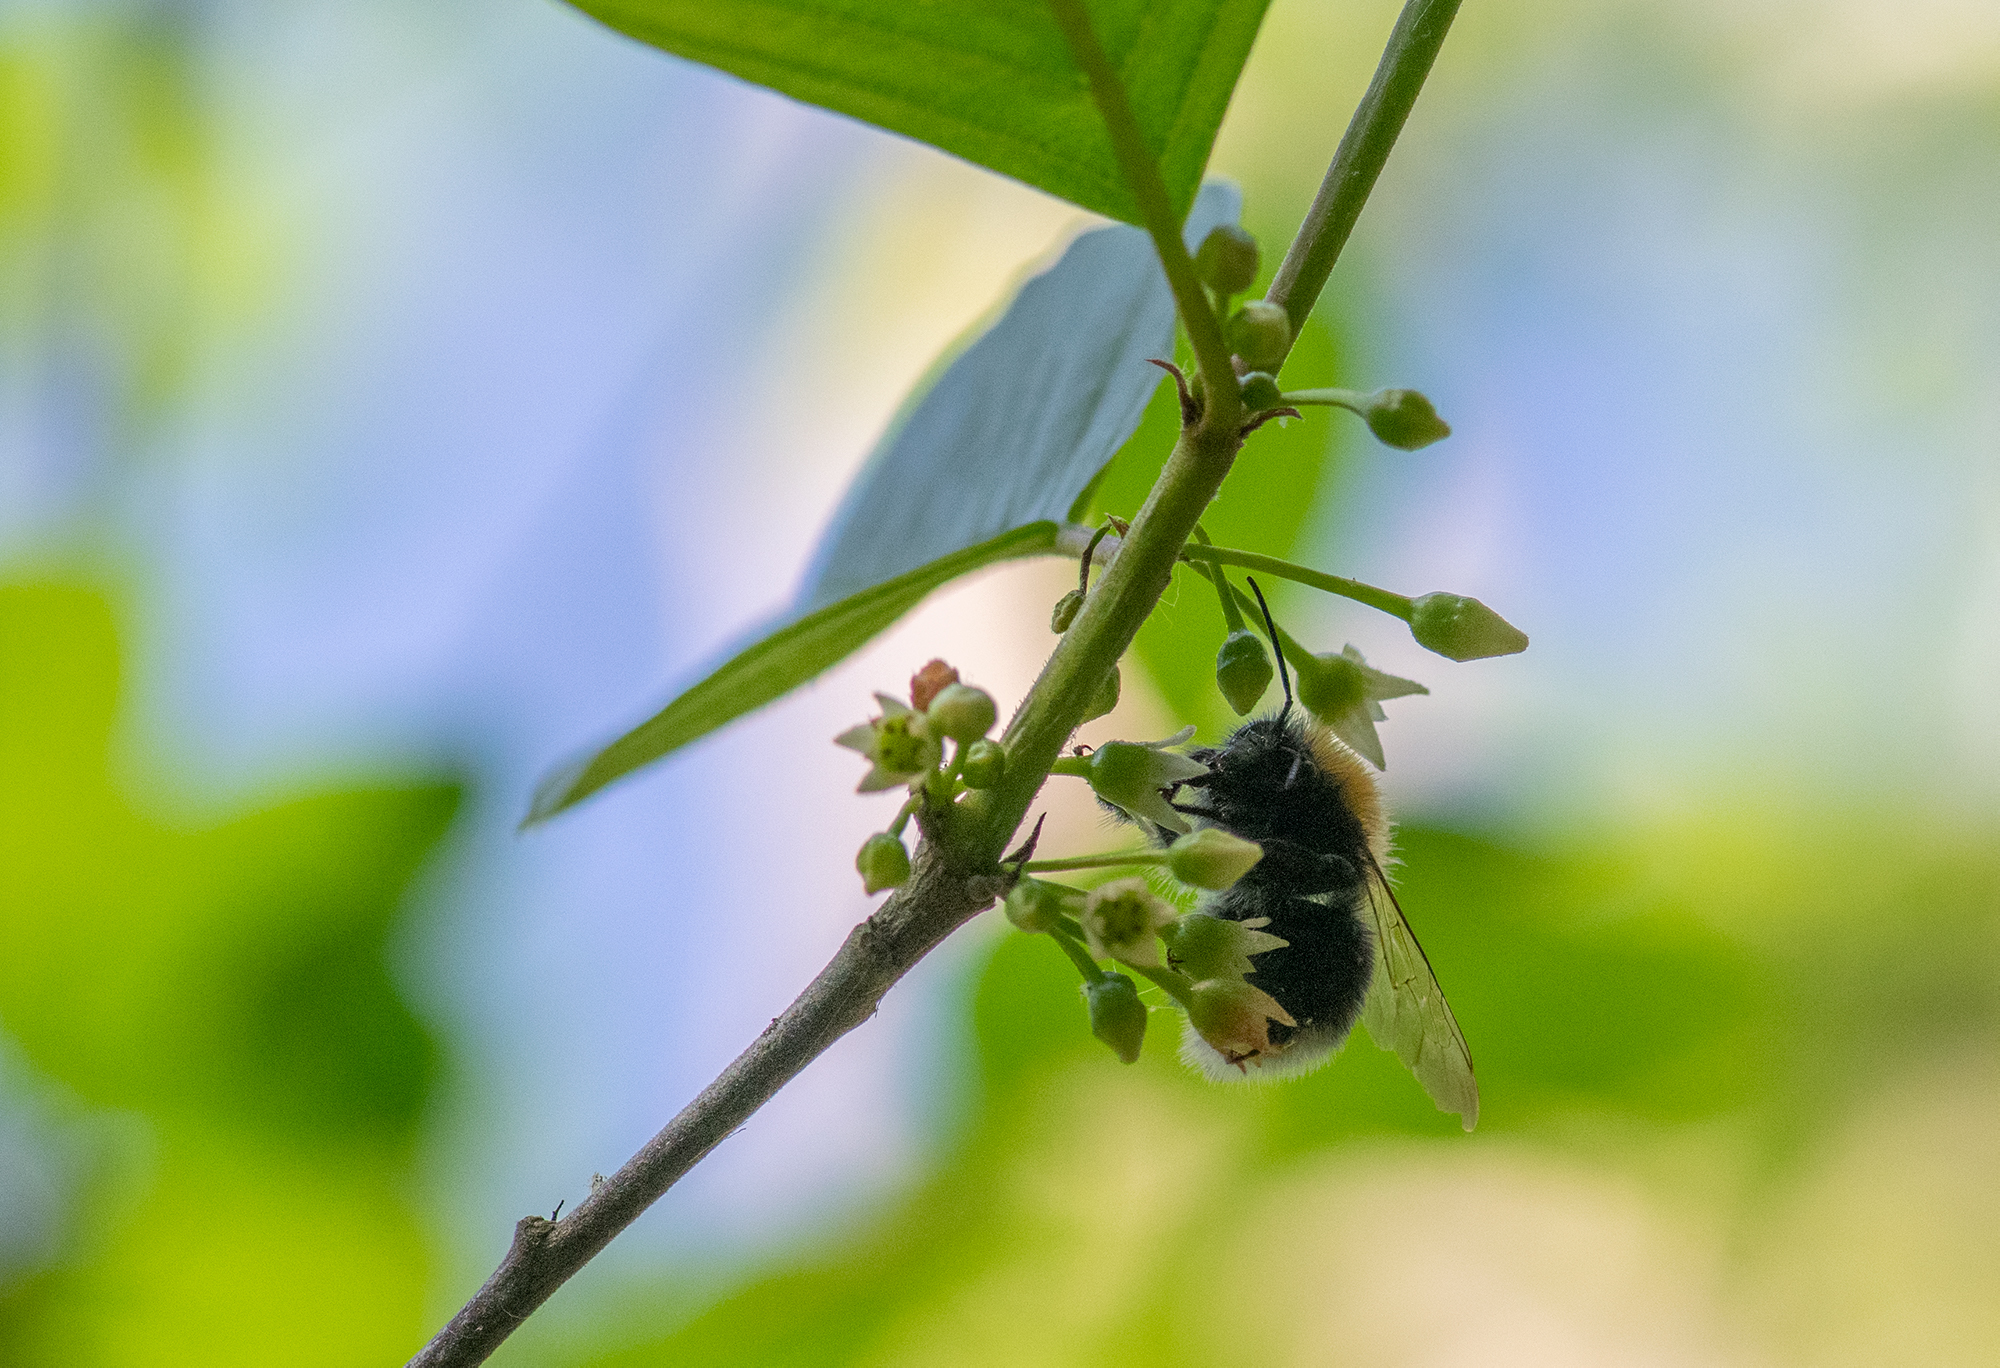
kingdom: Animalia
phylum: Arthropoda
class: Insecta
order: Hymenoptera
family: Apidae
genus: Bombus
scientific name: Bombus hypnorum
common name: New garden bumblebee
